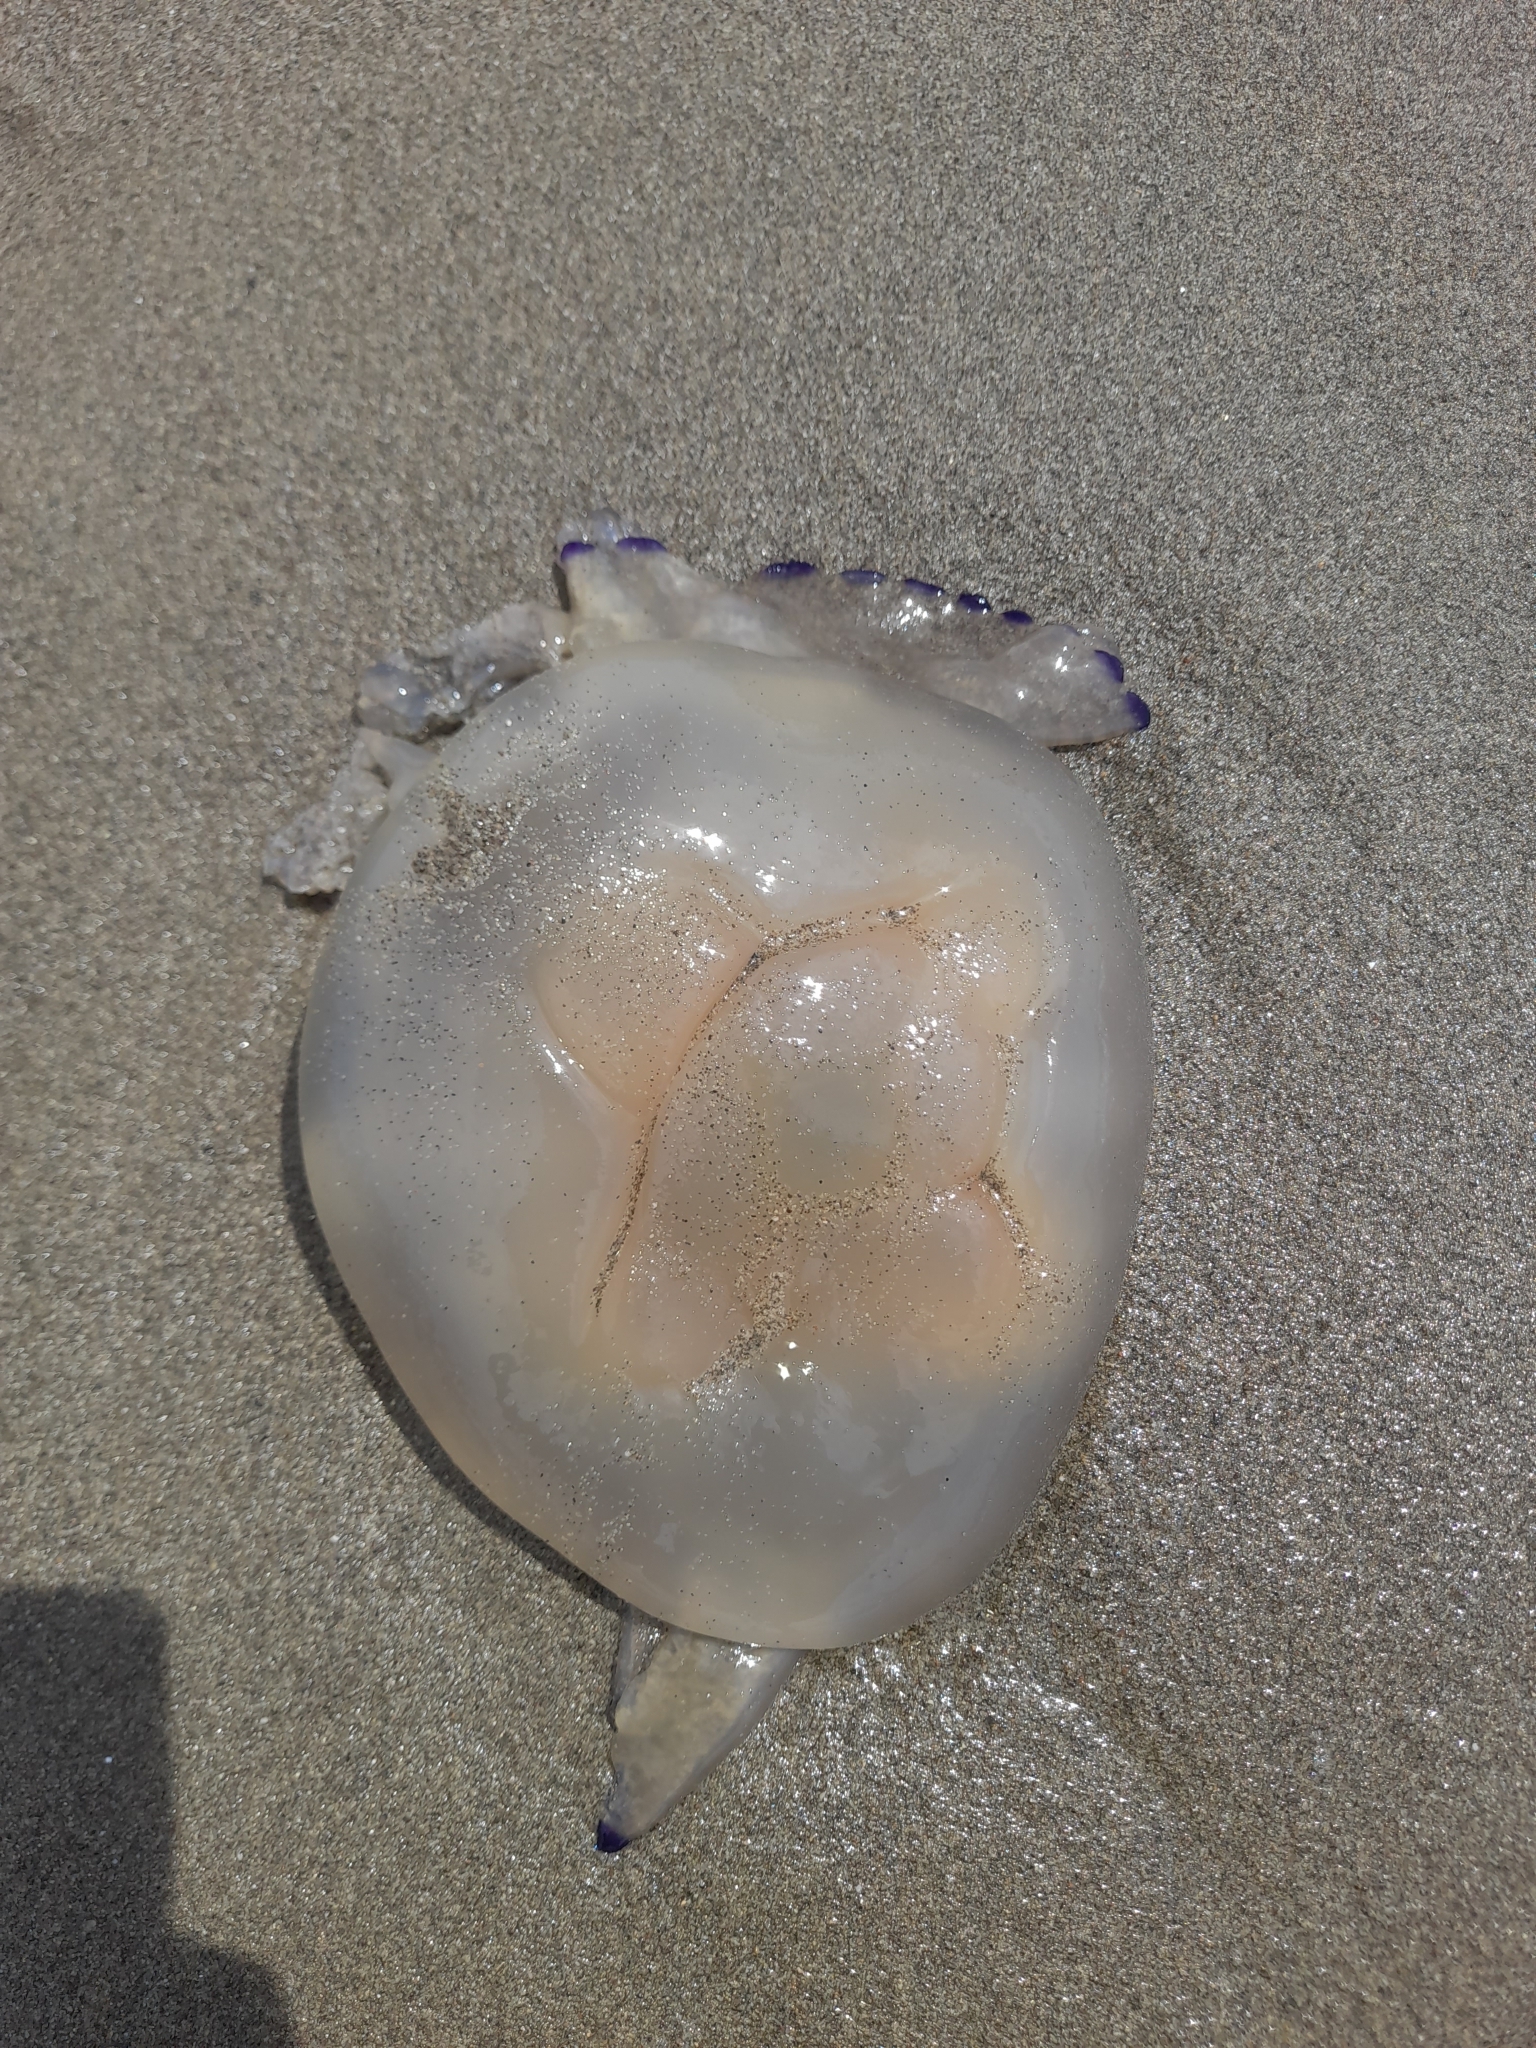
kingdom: Animalia
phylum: Cnidaria
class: Scyphozoa
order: Rhizostomeae
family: Rhizostomatidae
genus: Rhizostoma
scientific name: Rhizostoma pulmo
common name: Barrel jellyfish
